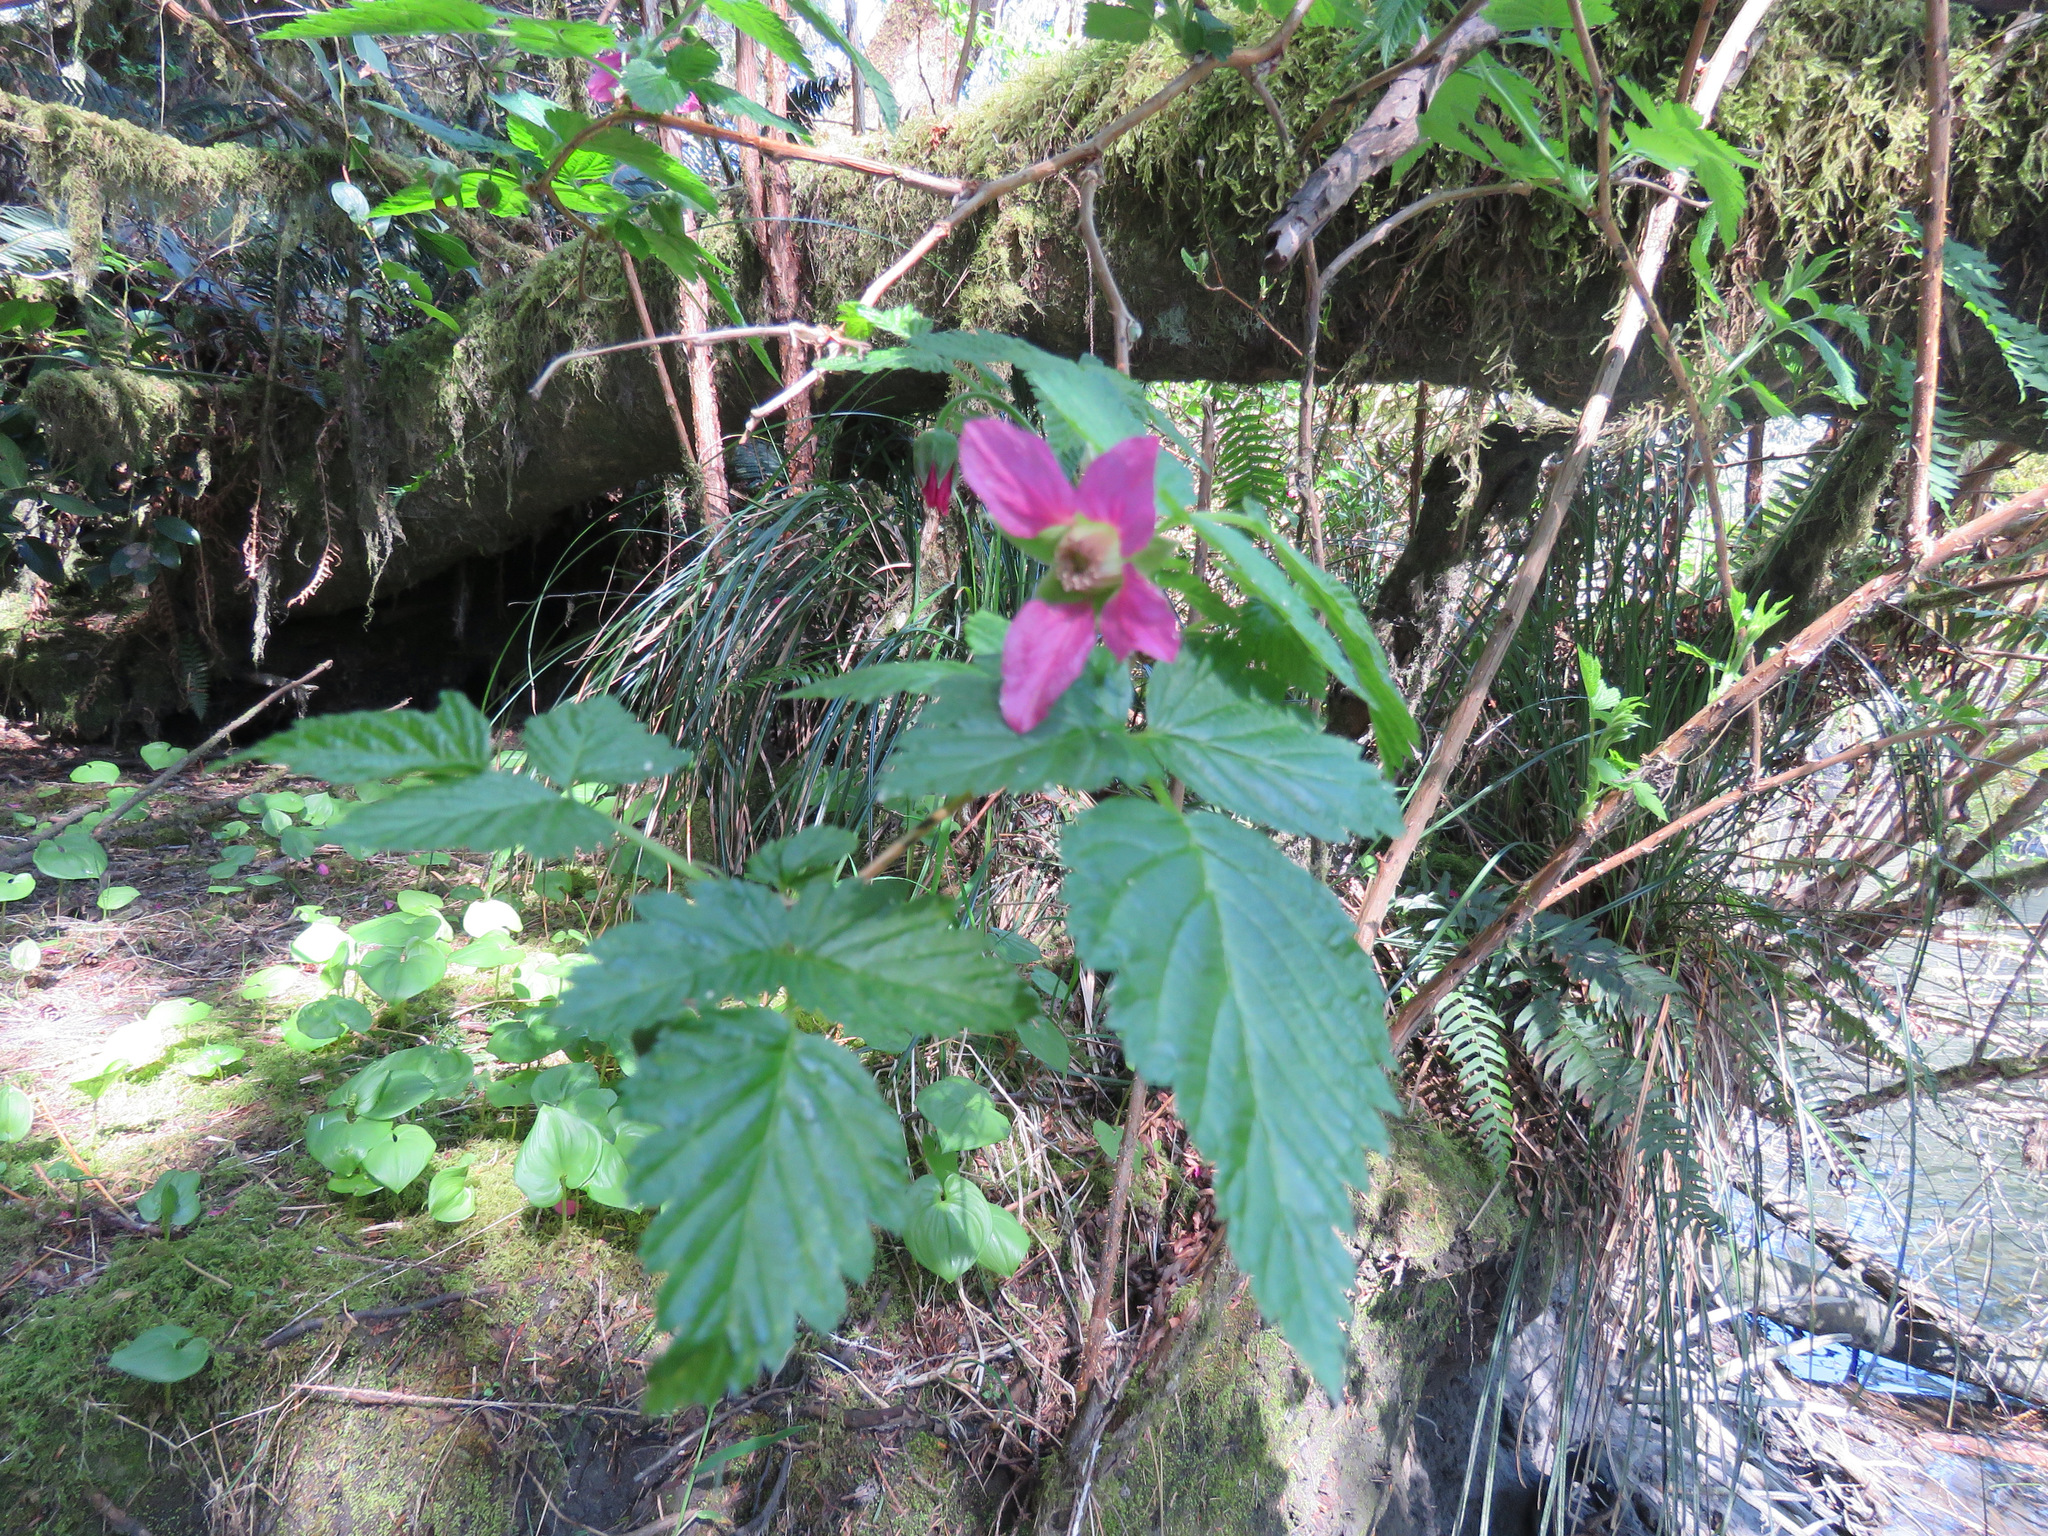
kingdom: Plantae
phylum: Tracheophyta
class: Magnoliopsida
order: Rosales
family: Rosaceae
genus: Rubus
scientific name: Rubus spectabilis
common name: Salmonberry
